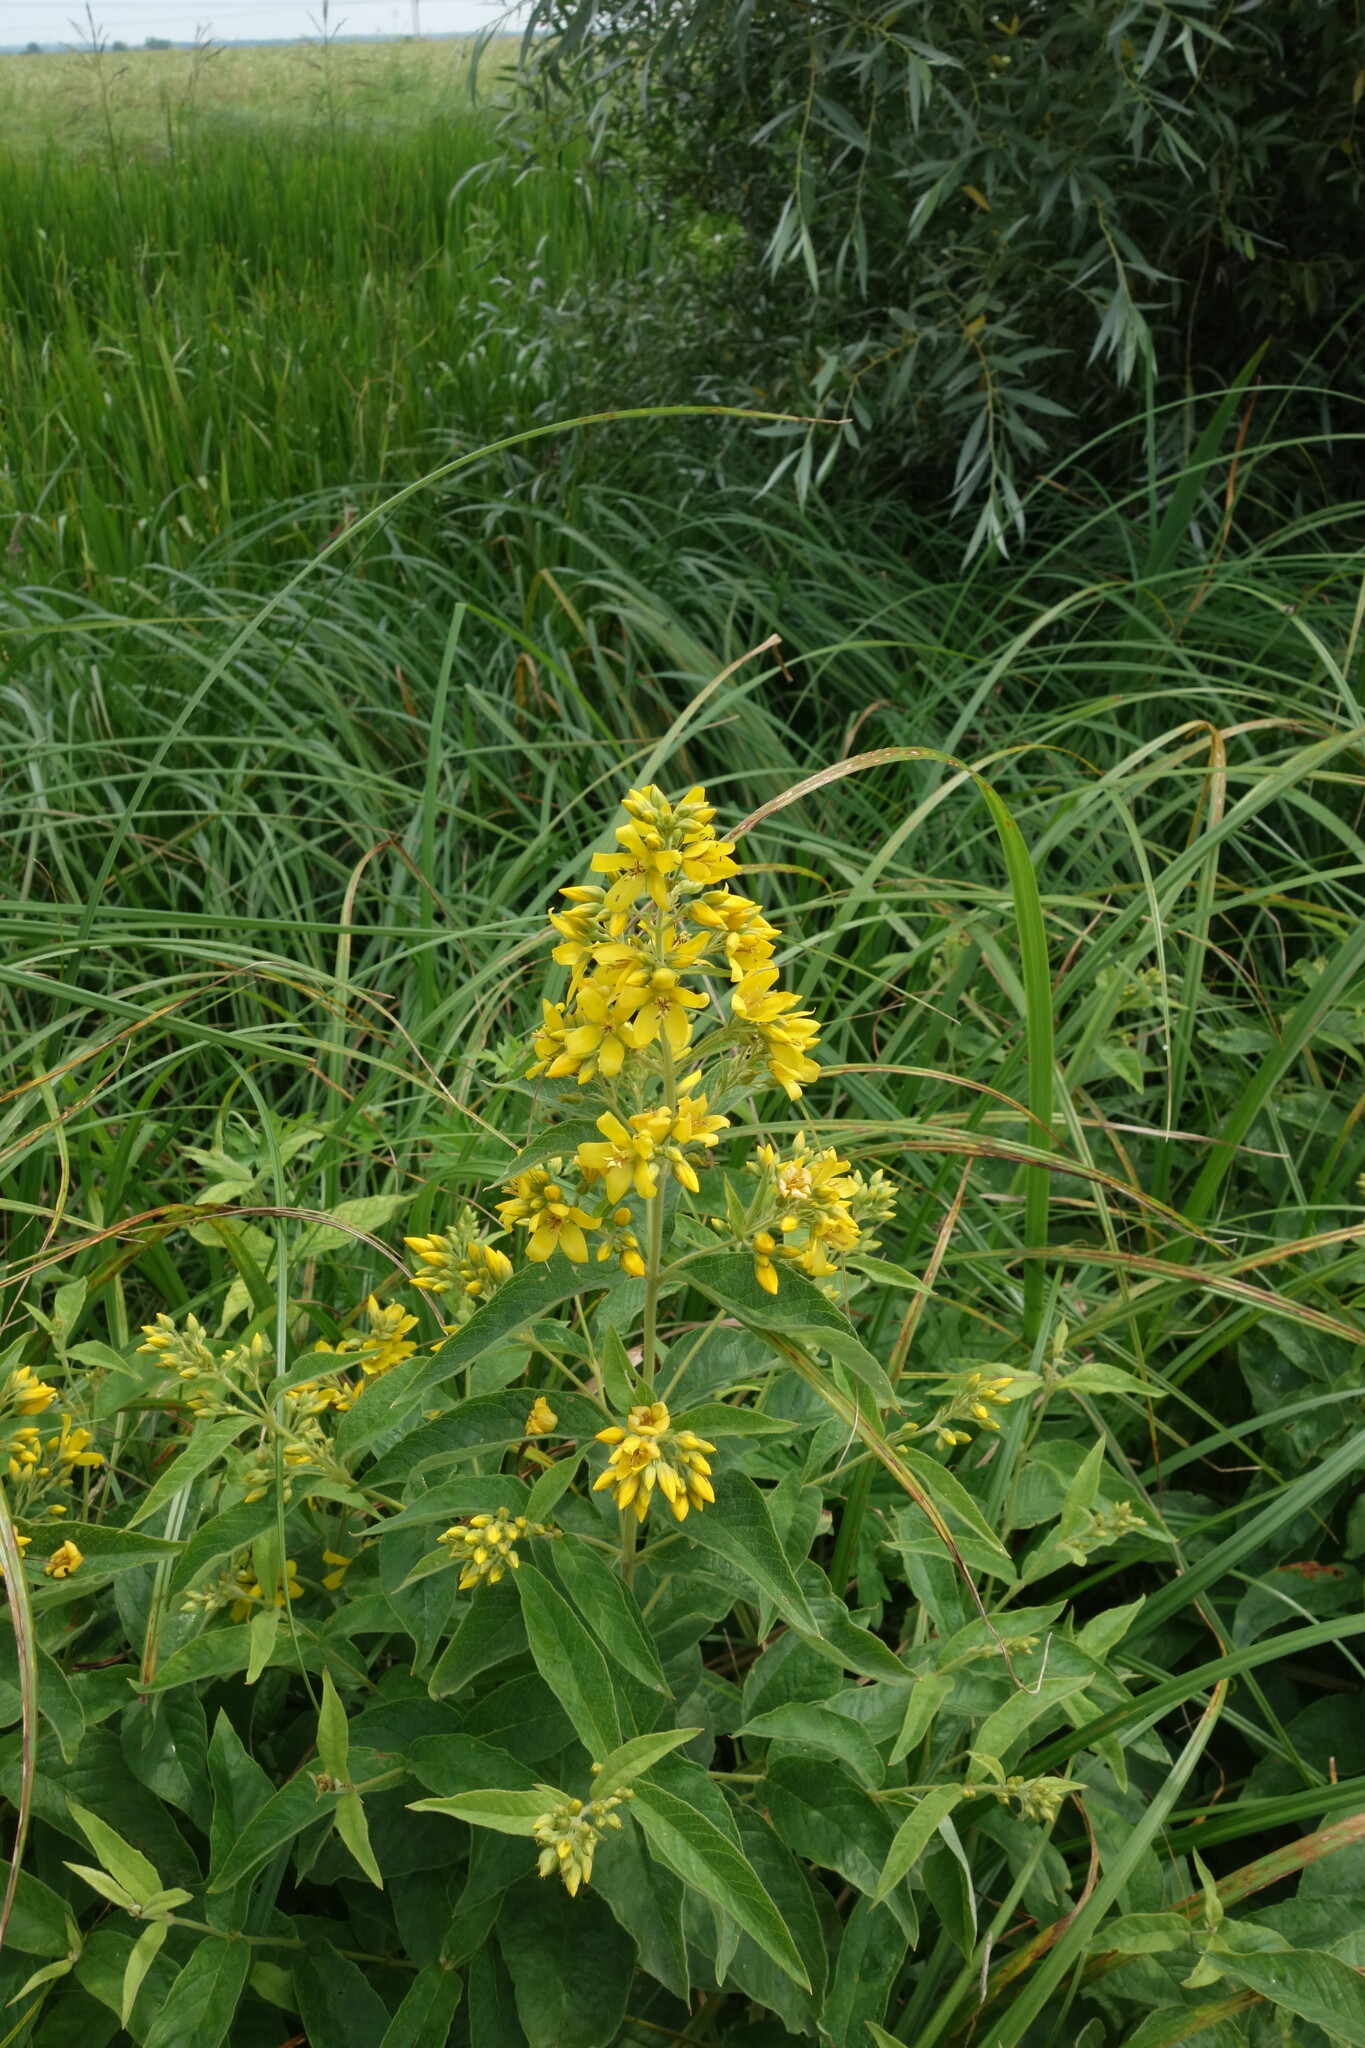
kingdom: Plantae
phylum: Tracheophyta
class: Magnoliopsida
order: Ericales
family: Primulaceae
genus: Lysimachia
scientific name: Lysimachia vulgaris
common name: Yellow loosestrife
